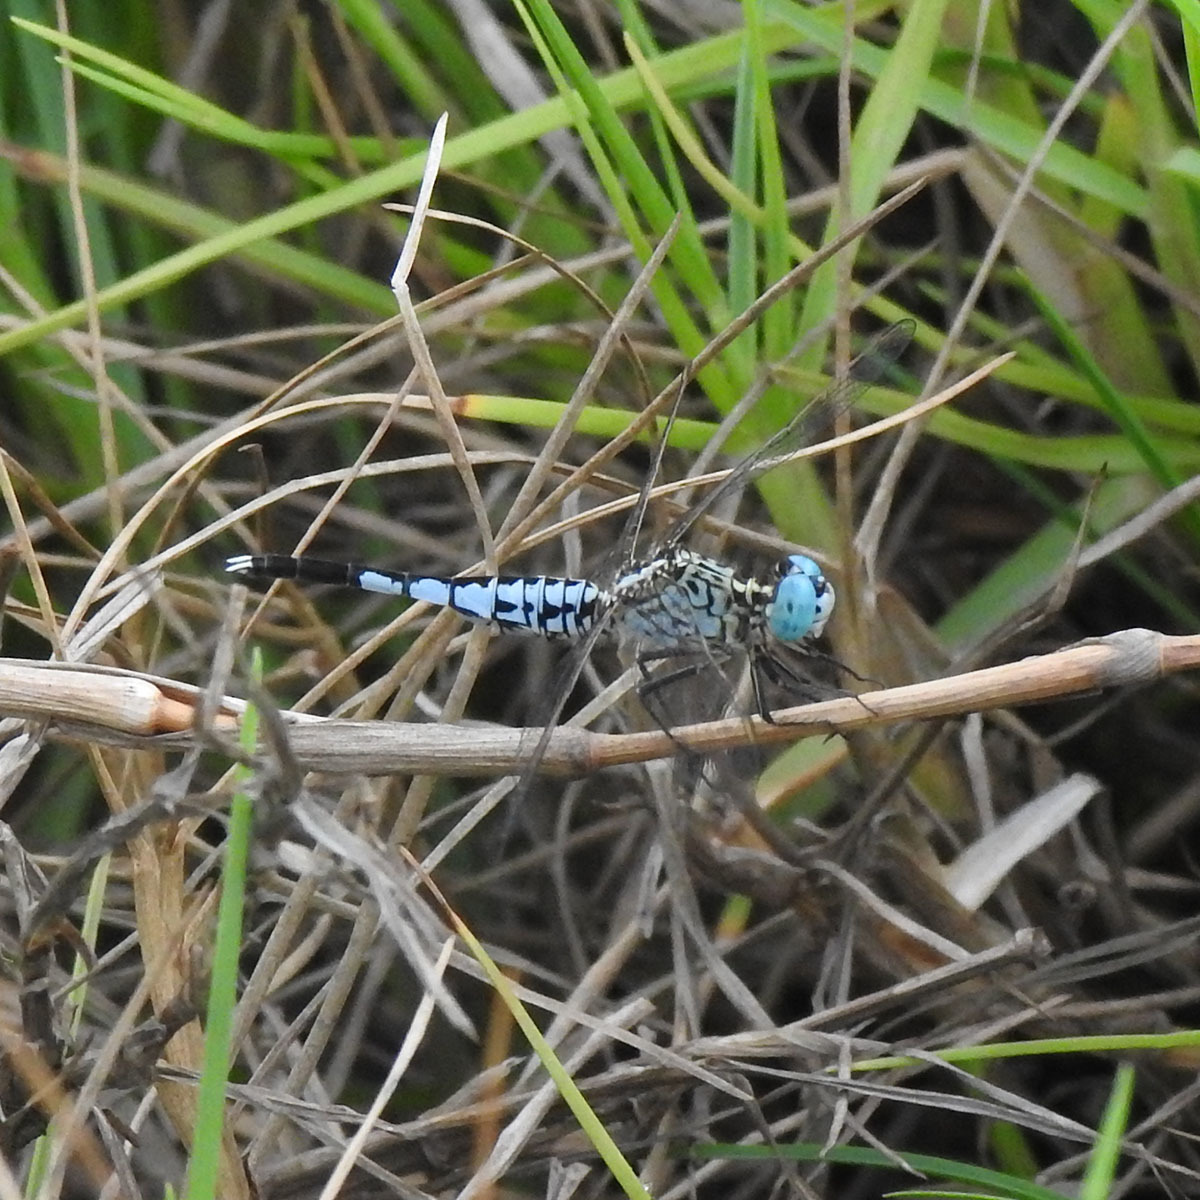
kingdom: Animalia
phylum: Arthropoda
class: Insecta
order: Odonata
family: Libellulidae
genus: Acisoma
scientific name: Acisoma panorpoides
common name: Asian pintail
